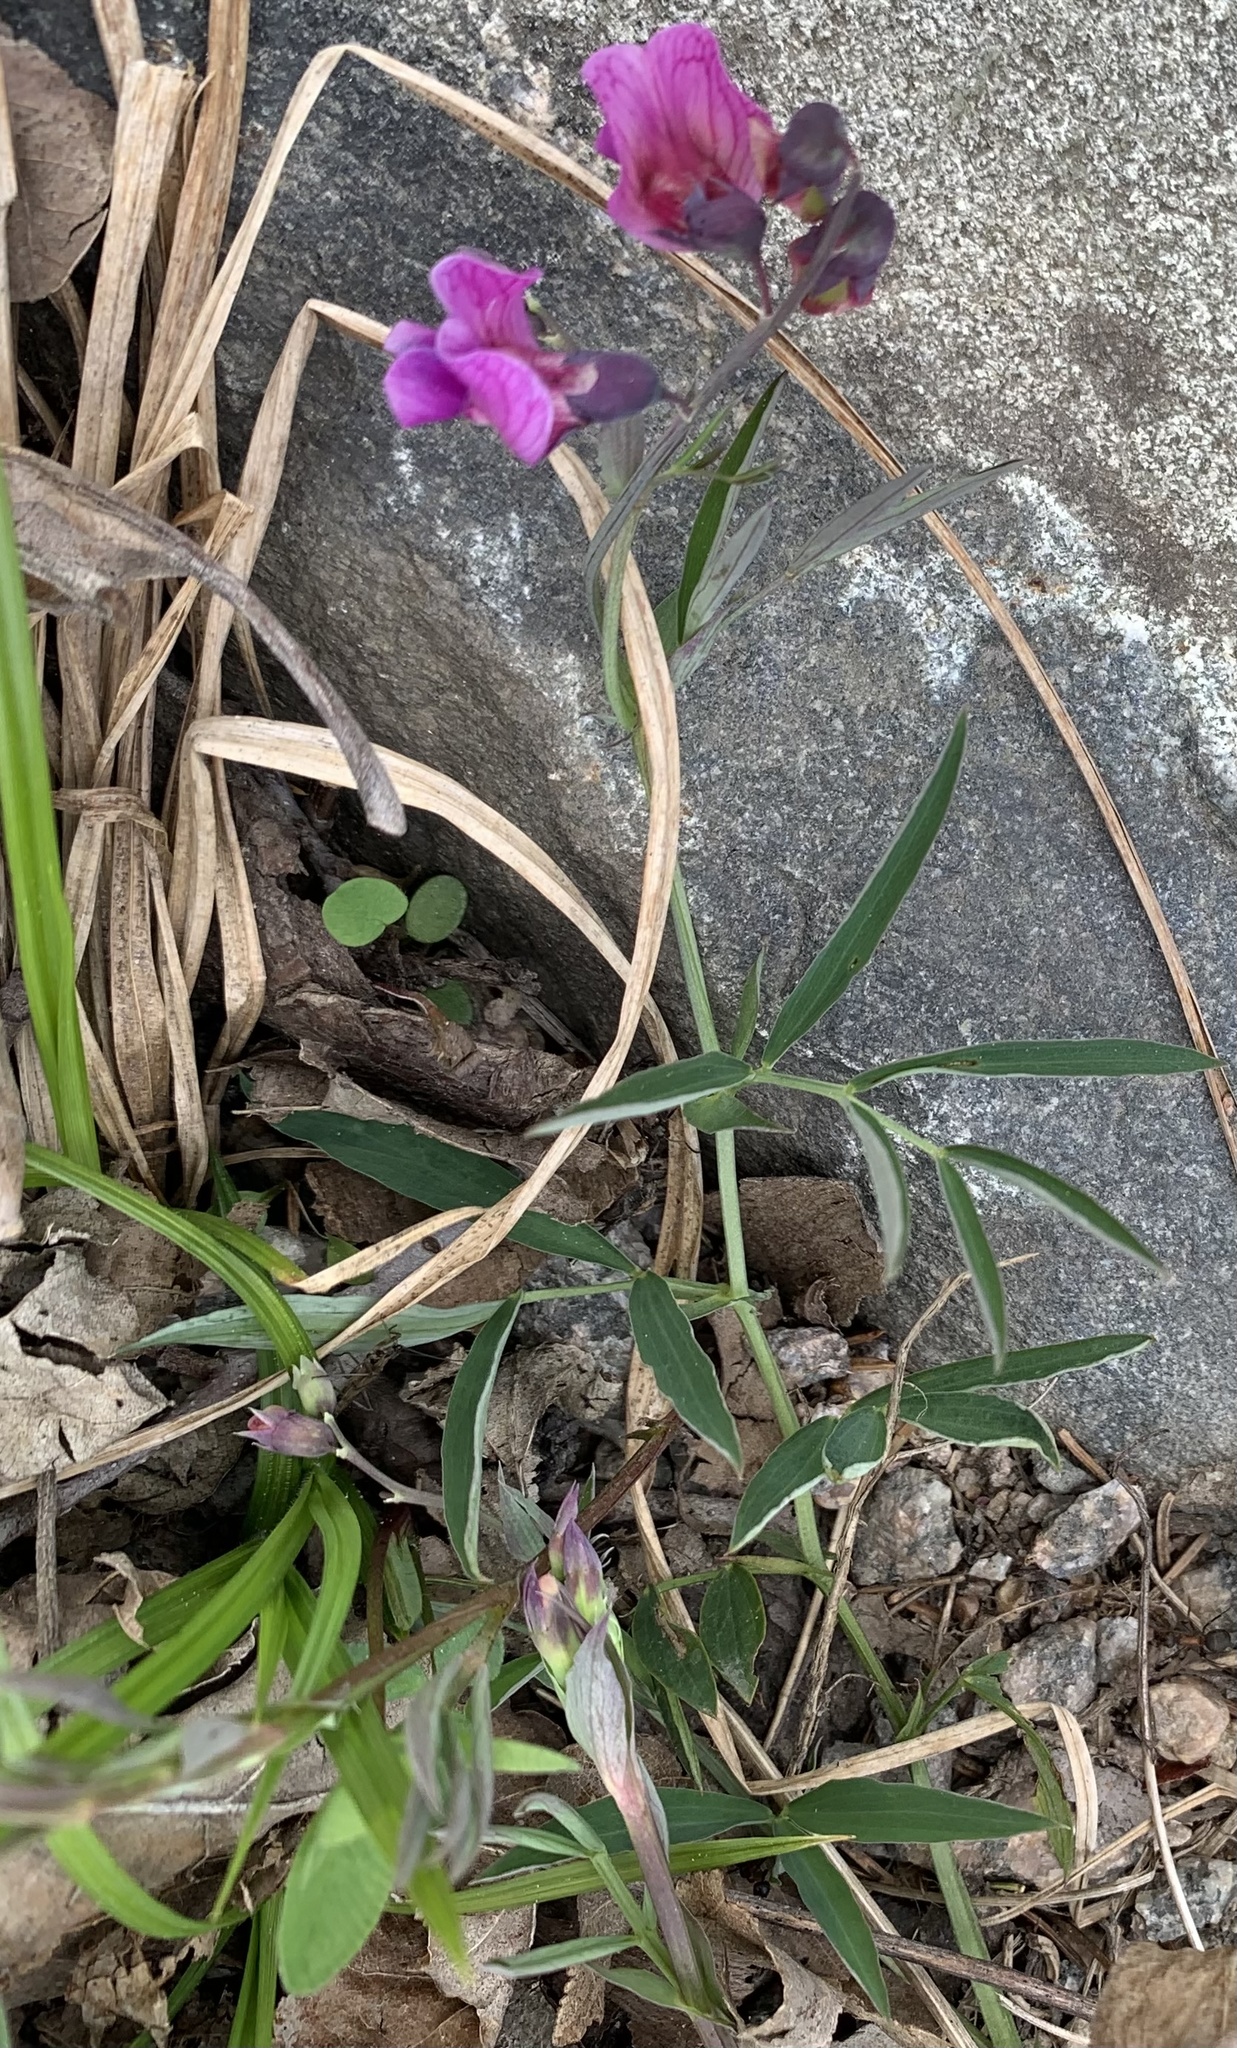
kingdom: Plantae
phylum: Tracheophyta
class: Magnoliopsida
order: Fabales
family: Fabaceae
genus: Lathyrus
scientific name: Lathyrus linifolius
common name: Bitter-vetch
